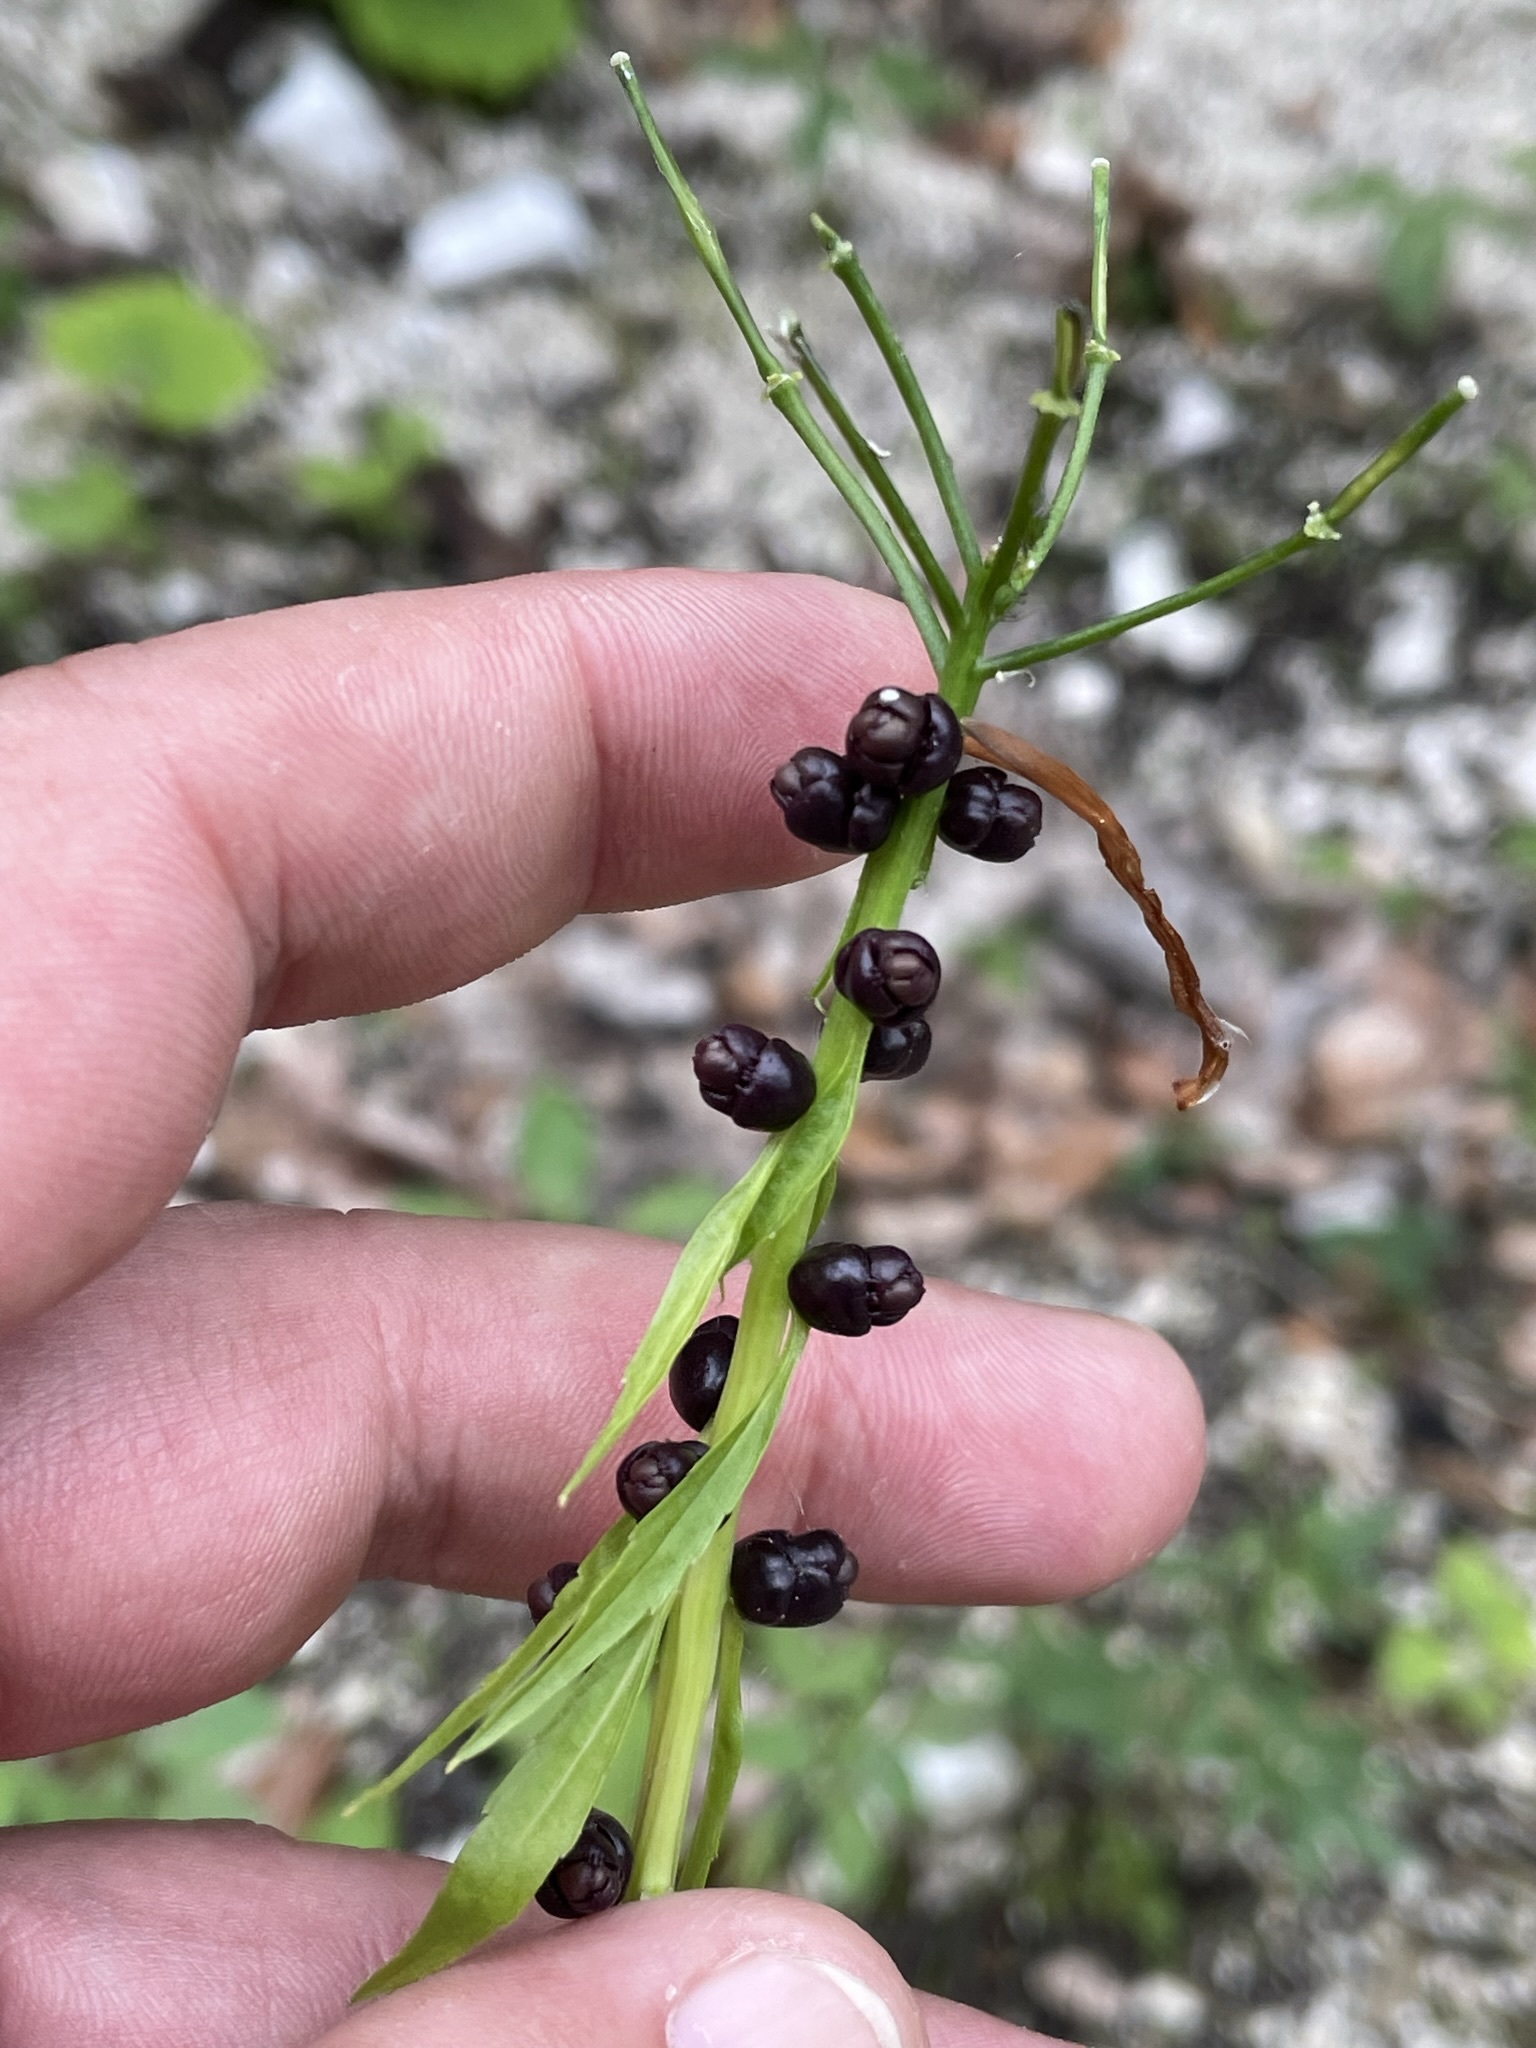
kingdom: Plantae
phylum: Tracheophyta
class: Magnoliopsida
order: Brassicales
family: Brassicaceae
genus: Cardamine
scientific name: Cardamine bulbifera
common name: Coralroot bittercress
